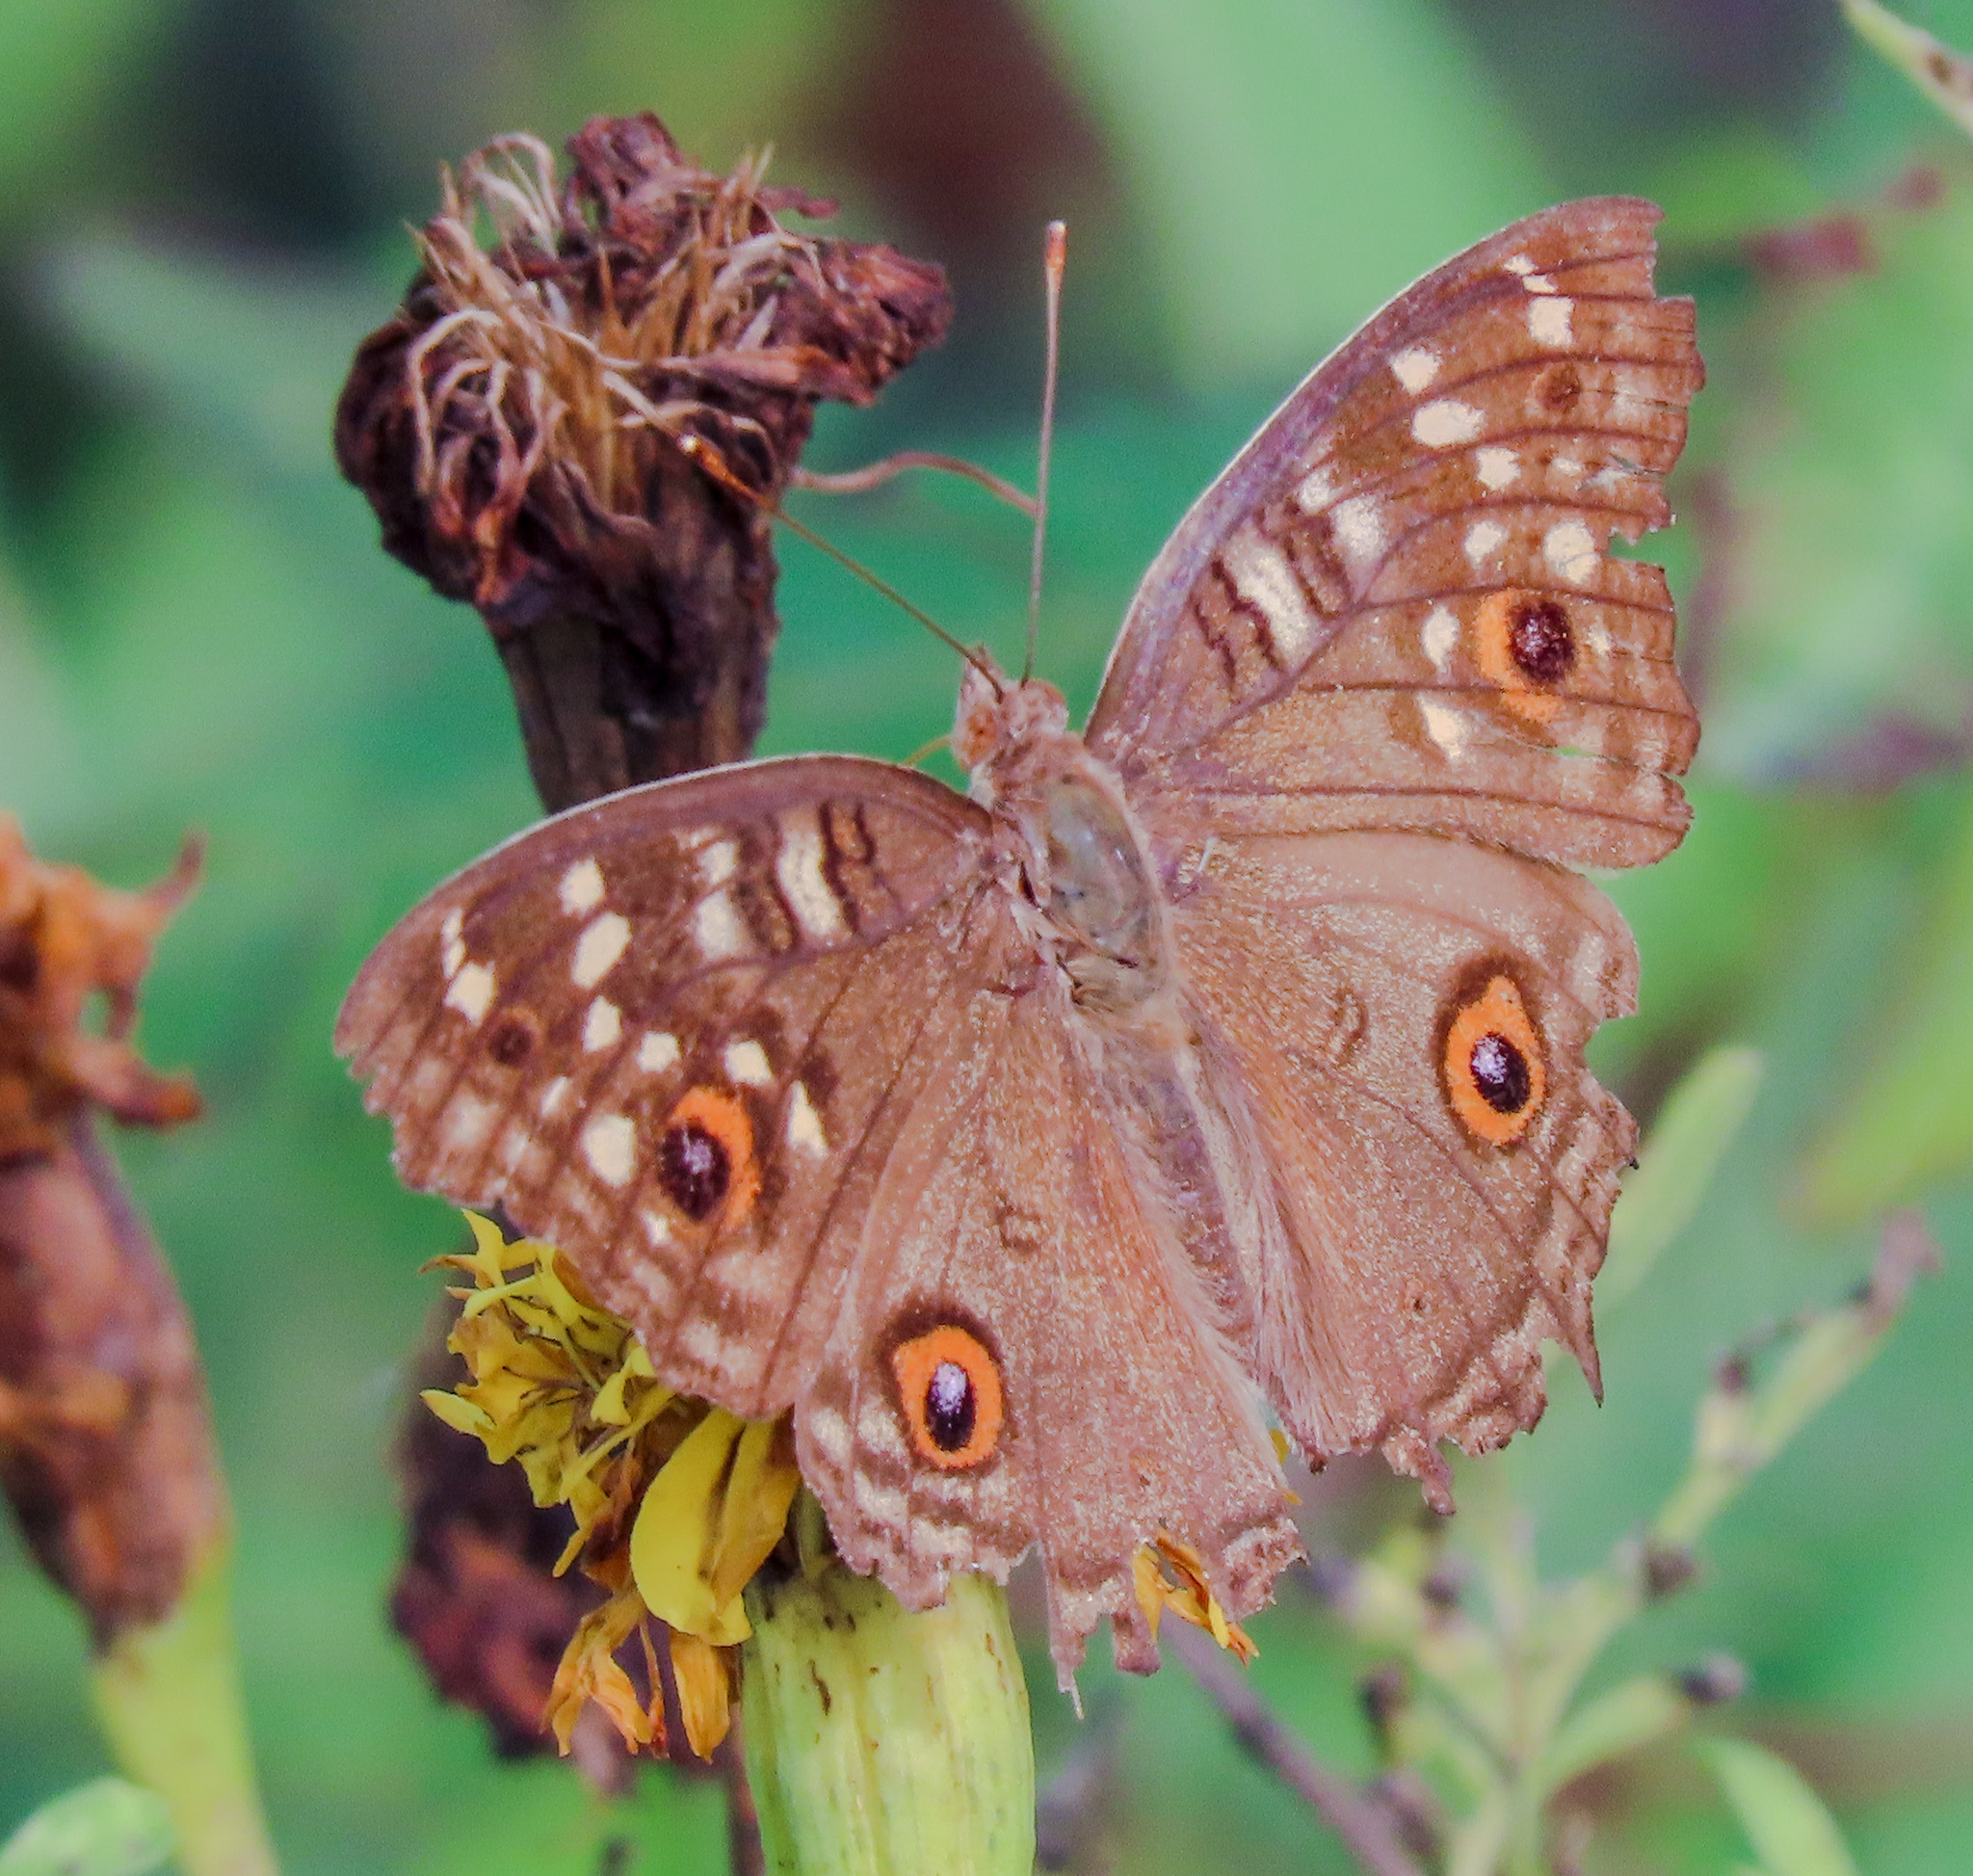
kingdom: Animalia
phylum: Arthropoda
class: Insecta
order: Lepidoptera
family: Nymphalidae
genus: Junonia
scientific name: Junonia lemonias
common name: Lemon pansy
